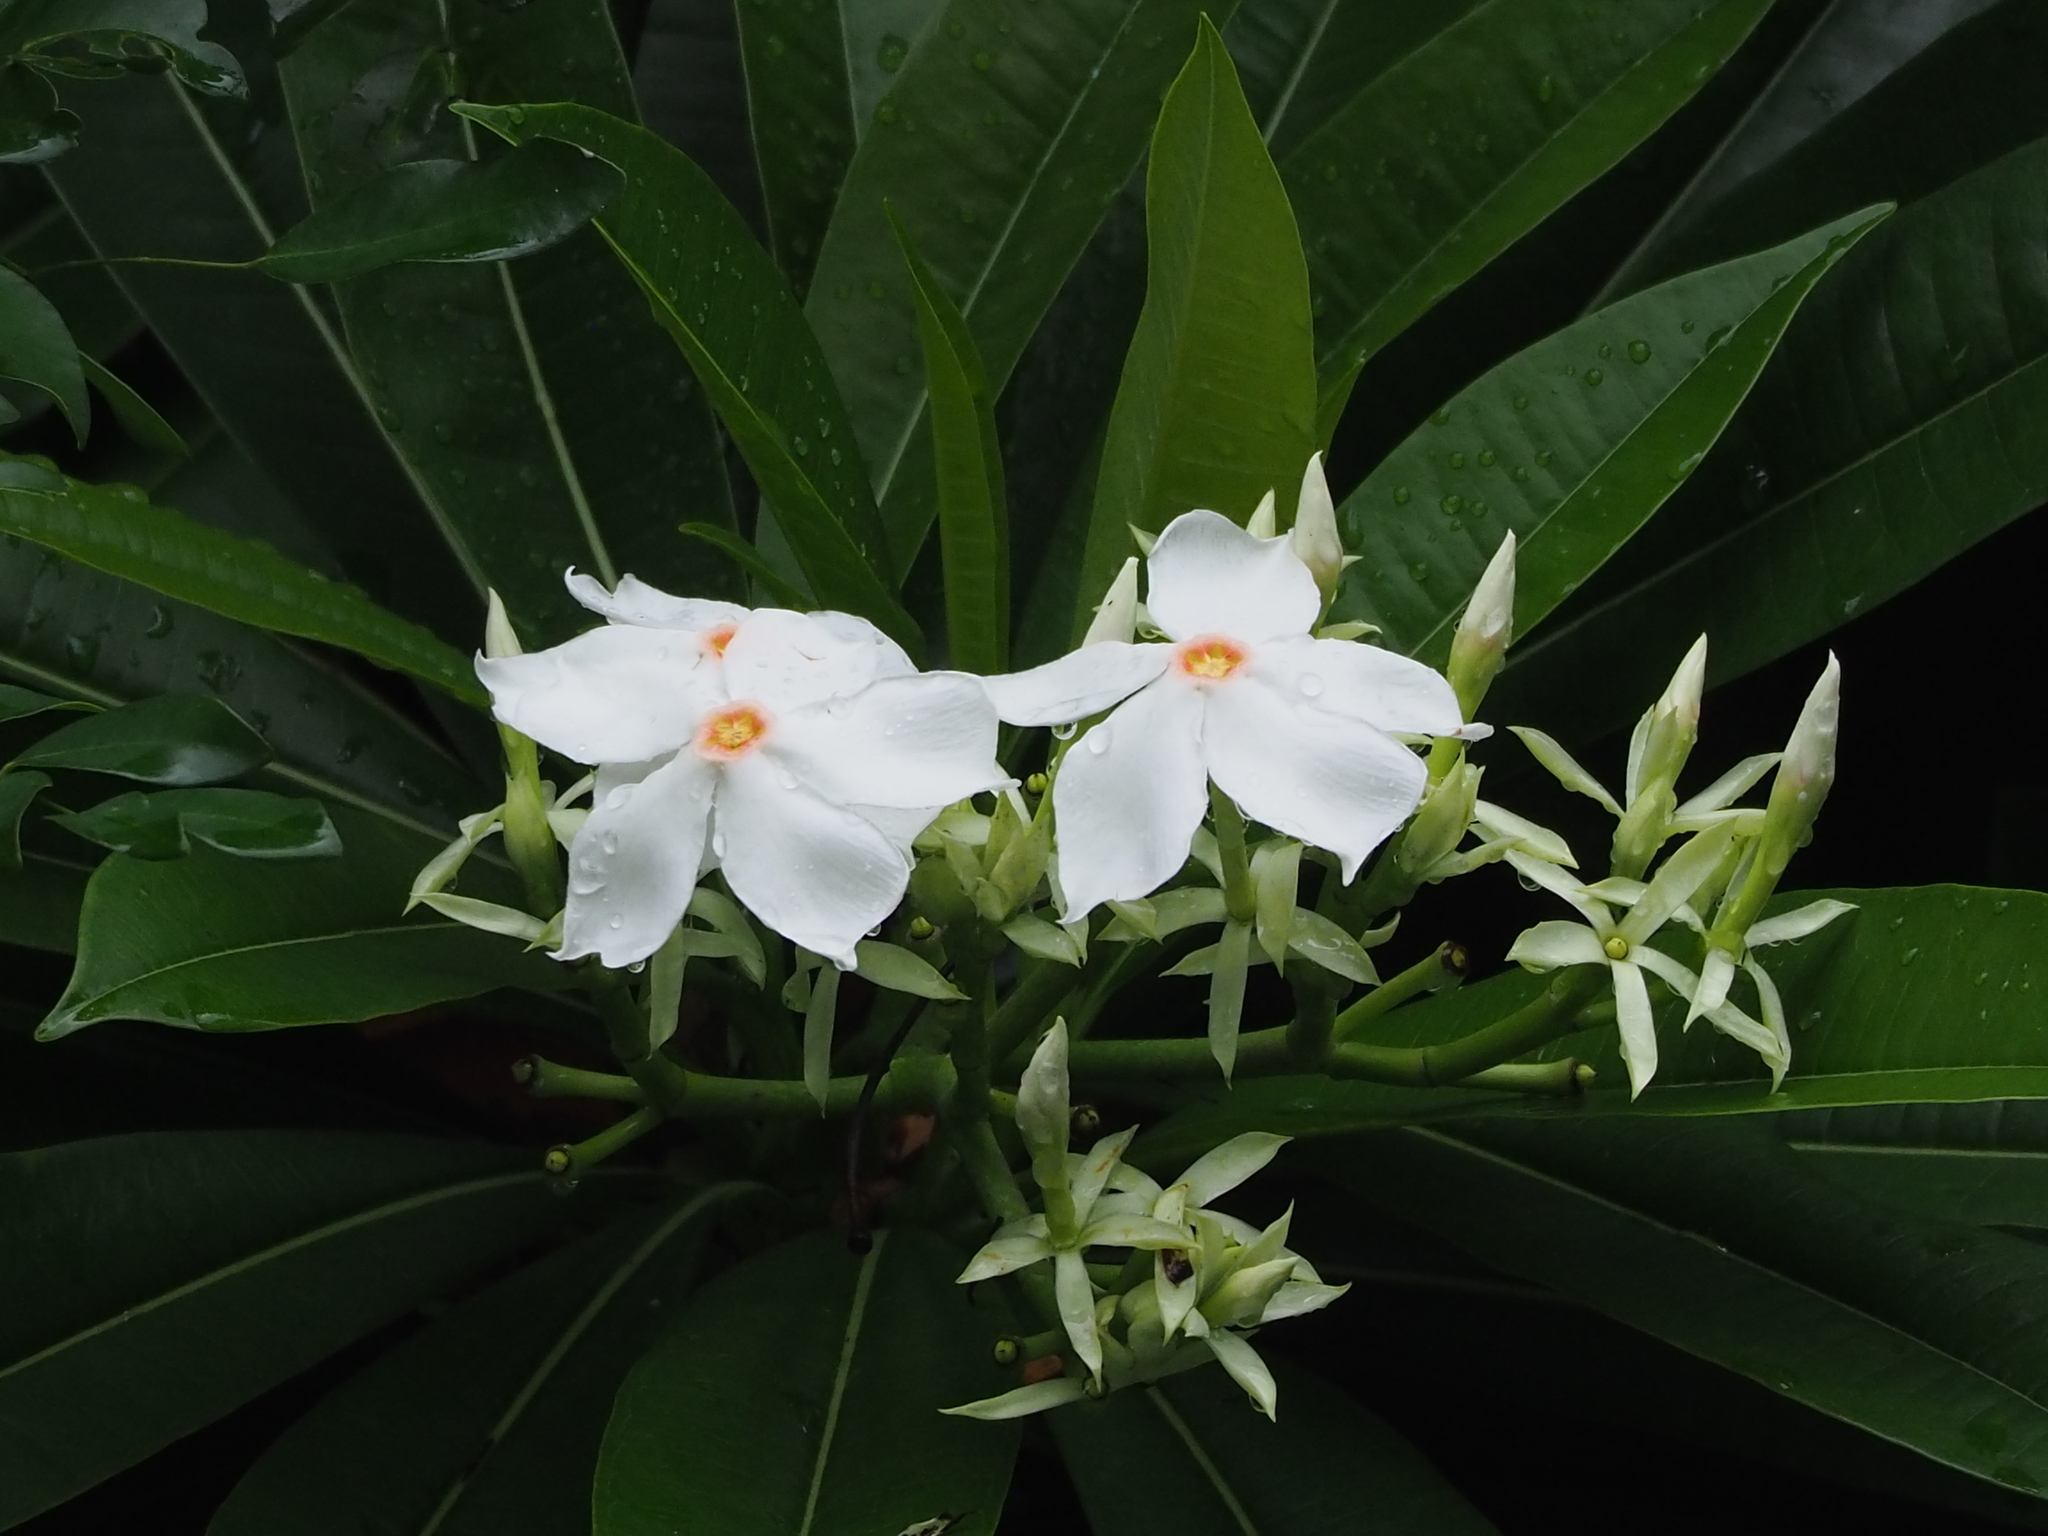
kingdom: Plantae
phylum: Tracheophyta
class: Magnoliopsida
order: Gentianales
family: Apocynaceae
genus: Cerbera
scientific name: Cerbera manghas
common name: Reva
